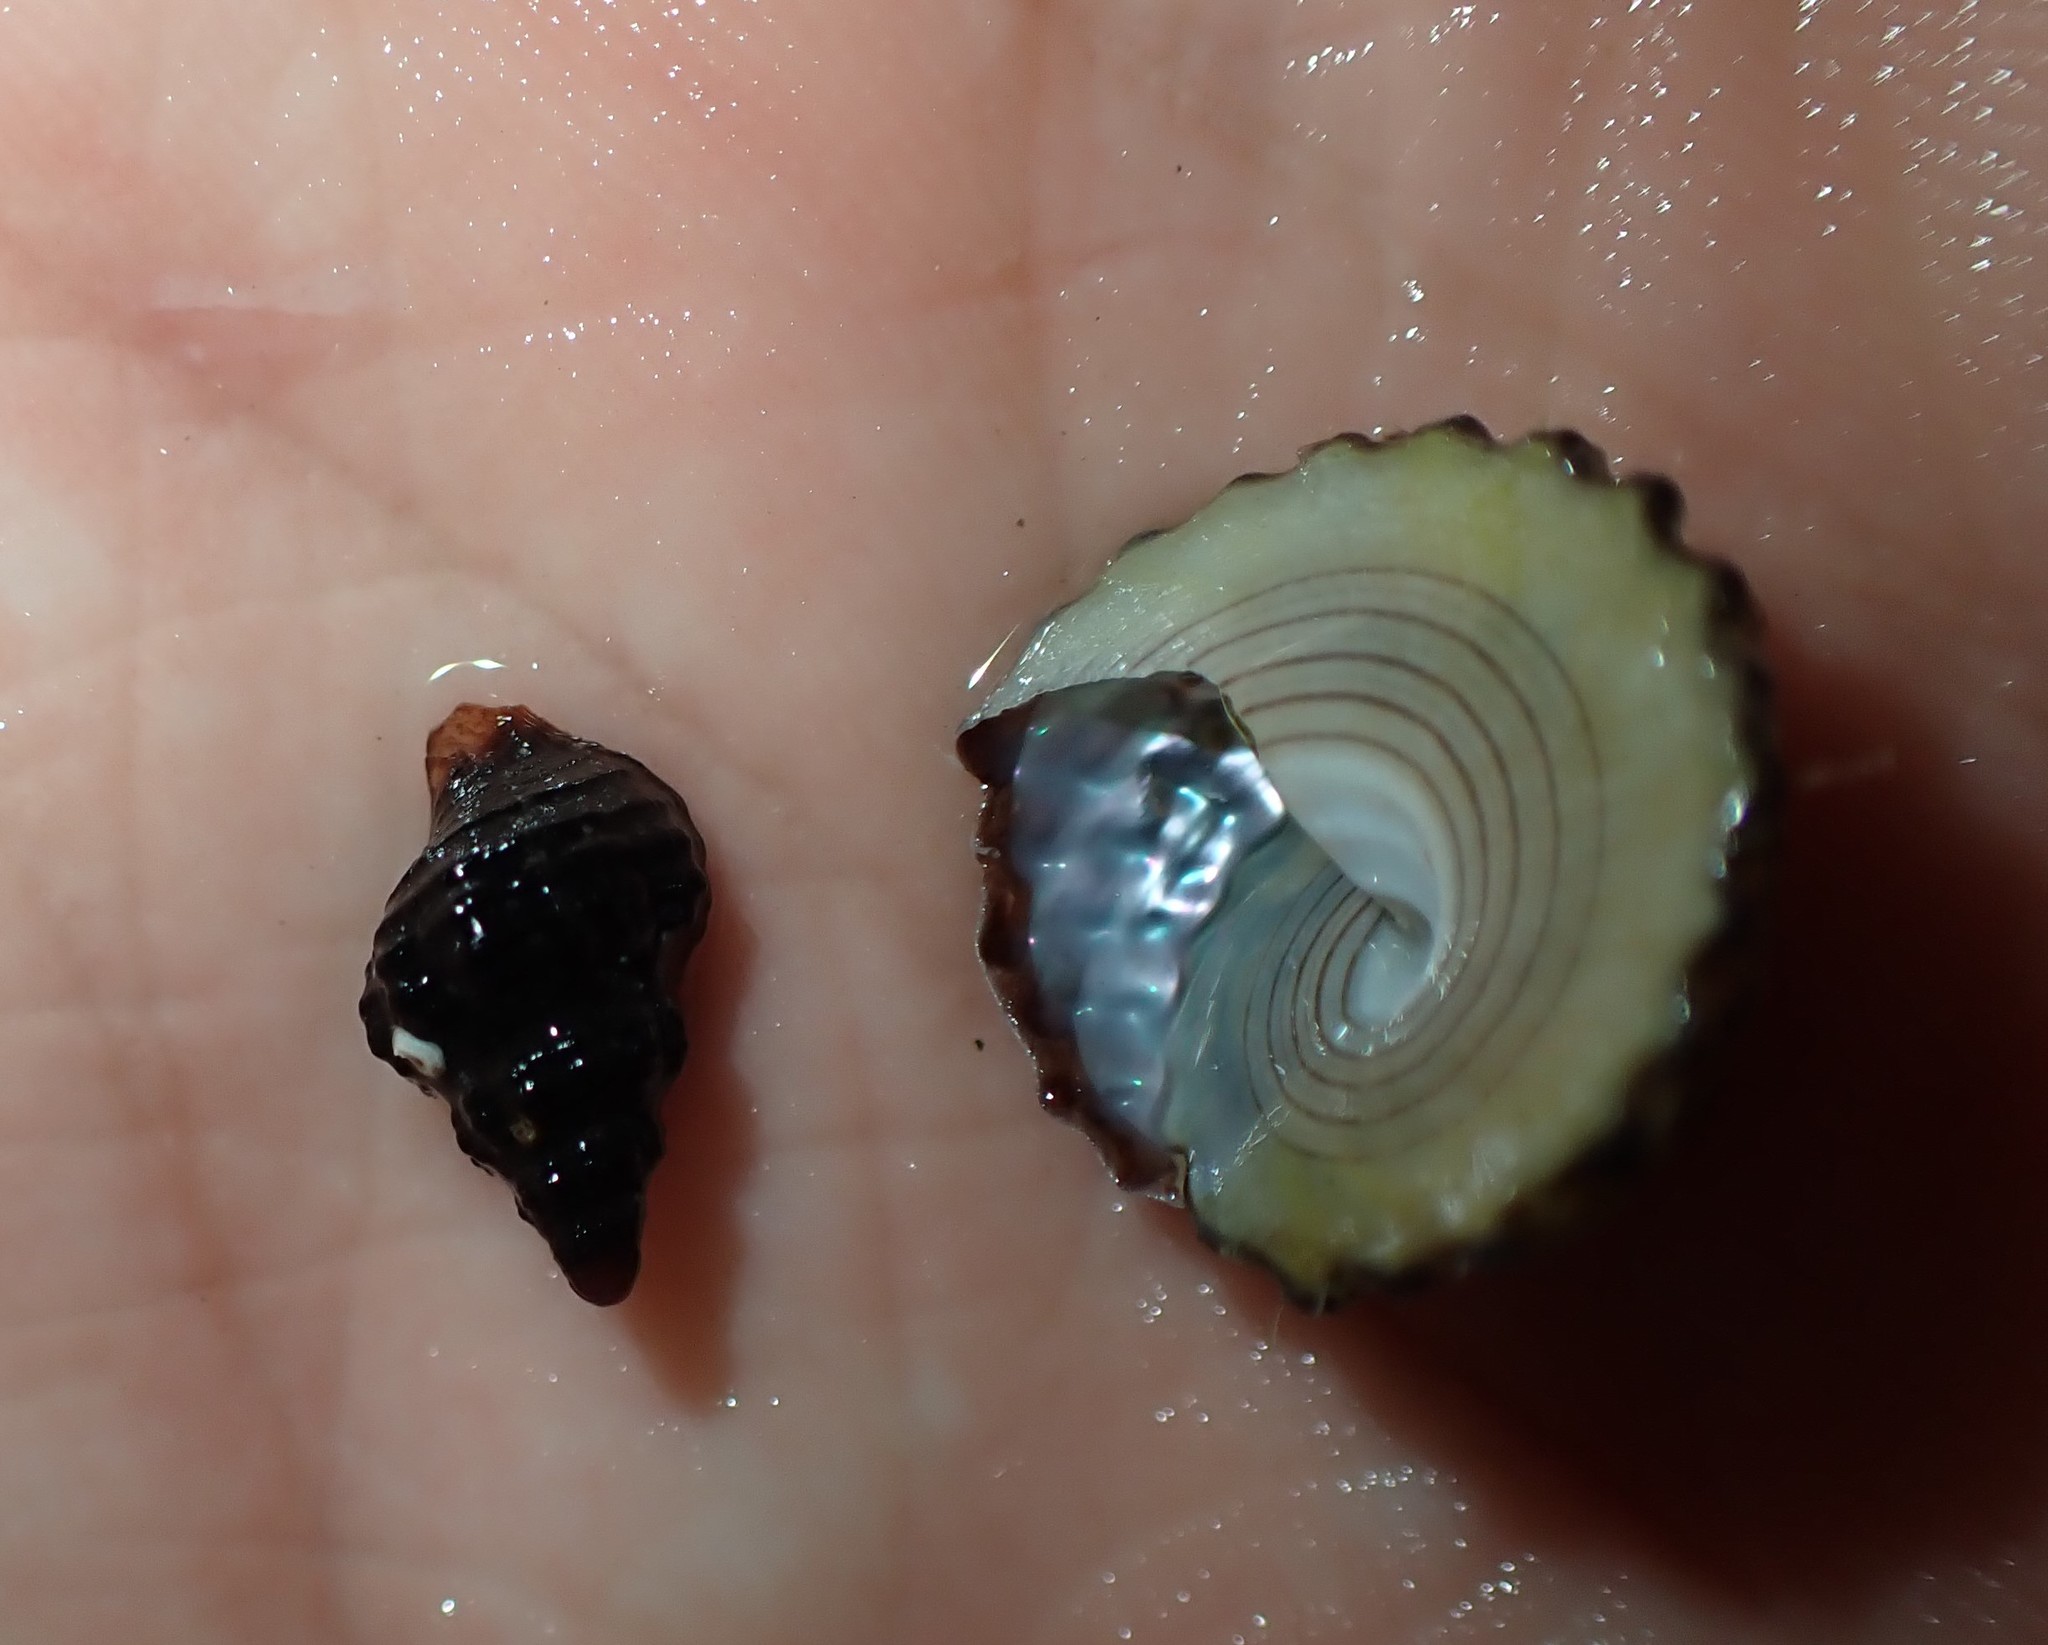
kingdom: Animalia
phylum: Mollusca
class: Gastropoda
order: Trochida
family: Trochidae
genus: Coelotrochus
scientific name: Coelotrochus viridis
